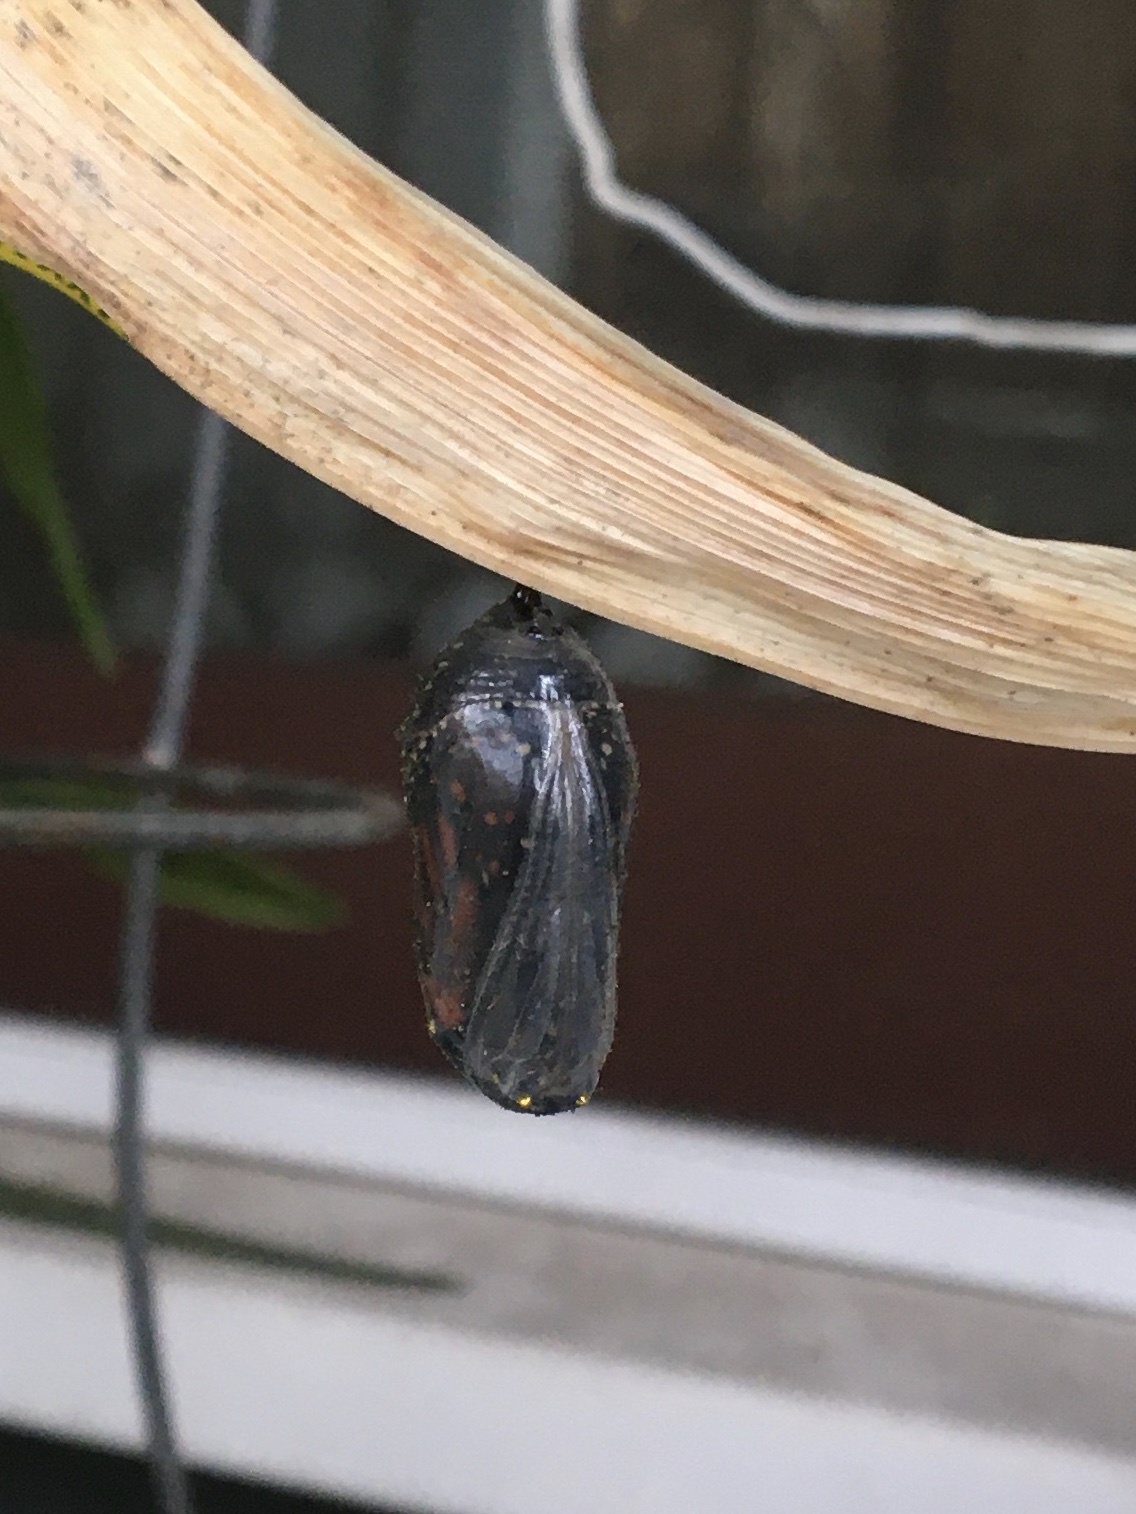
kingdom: Animalia
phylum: Arthropoda
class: Insecta
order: Lepidoptera
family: Nymphalidae
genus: Danaus
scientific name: Danaus plexippus
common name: Monarch
